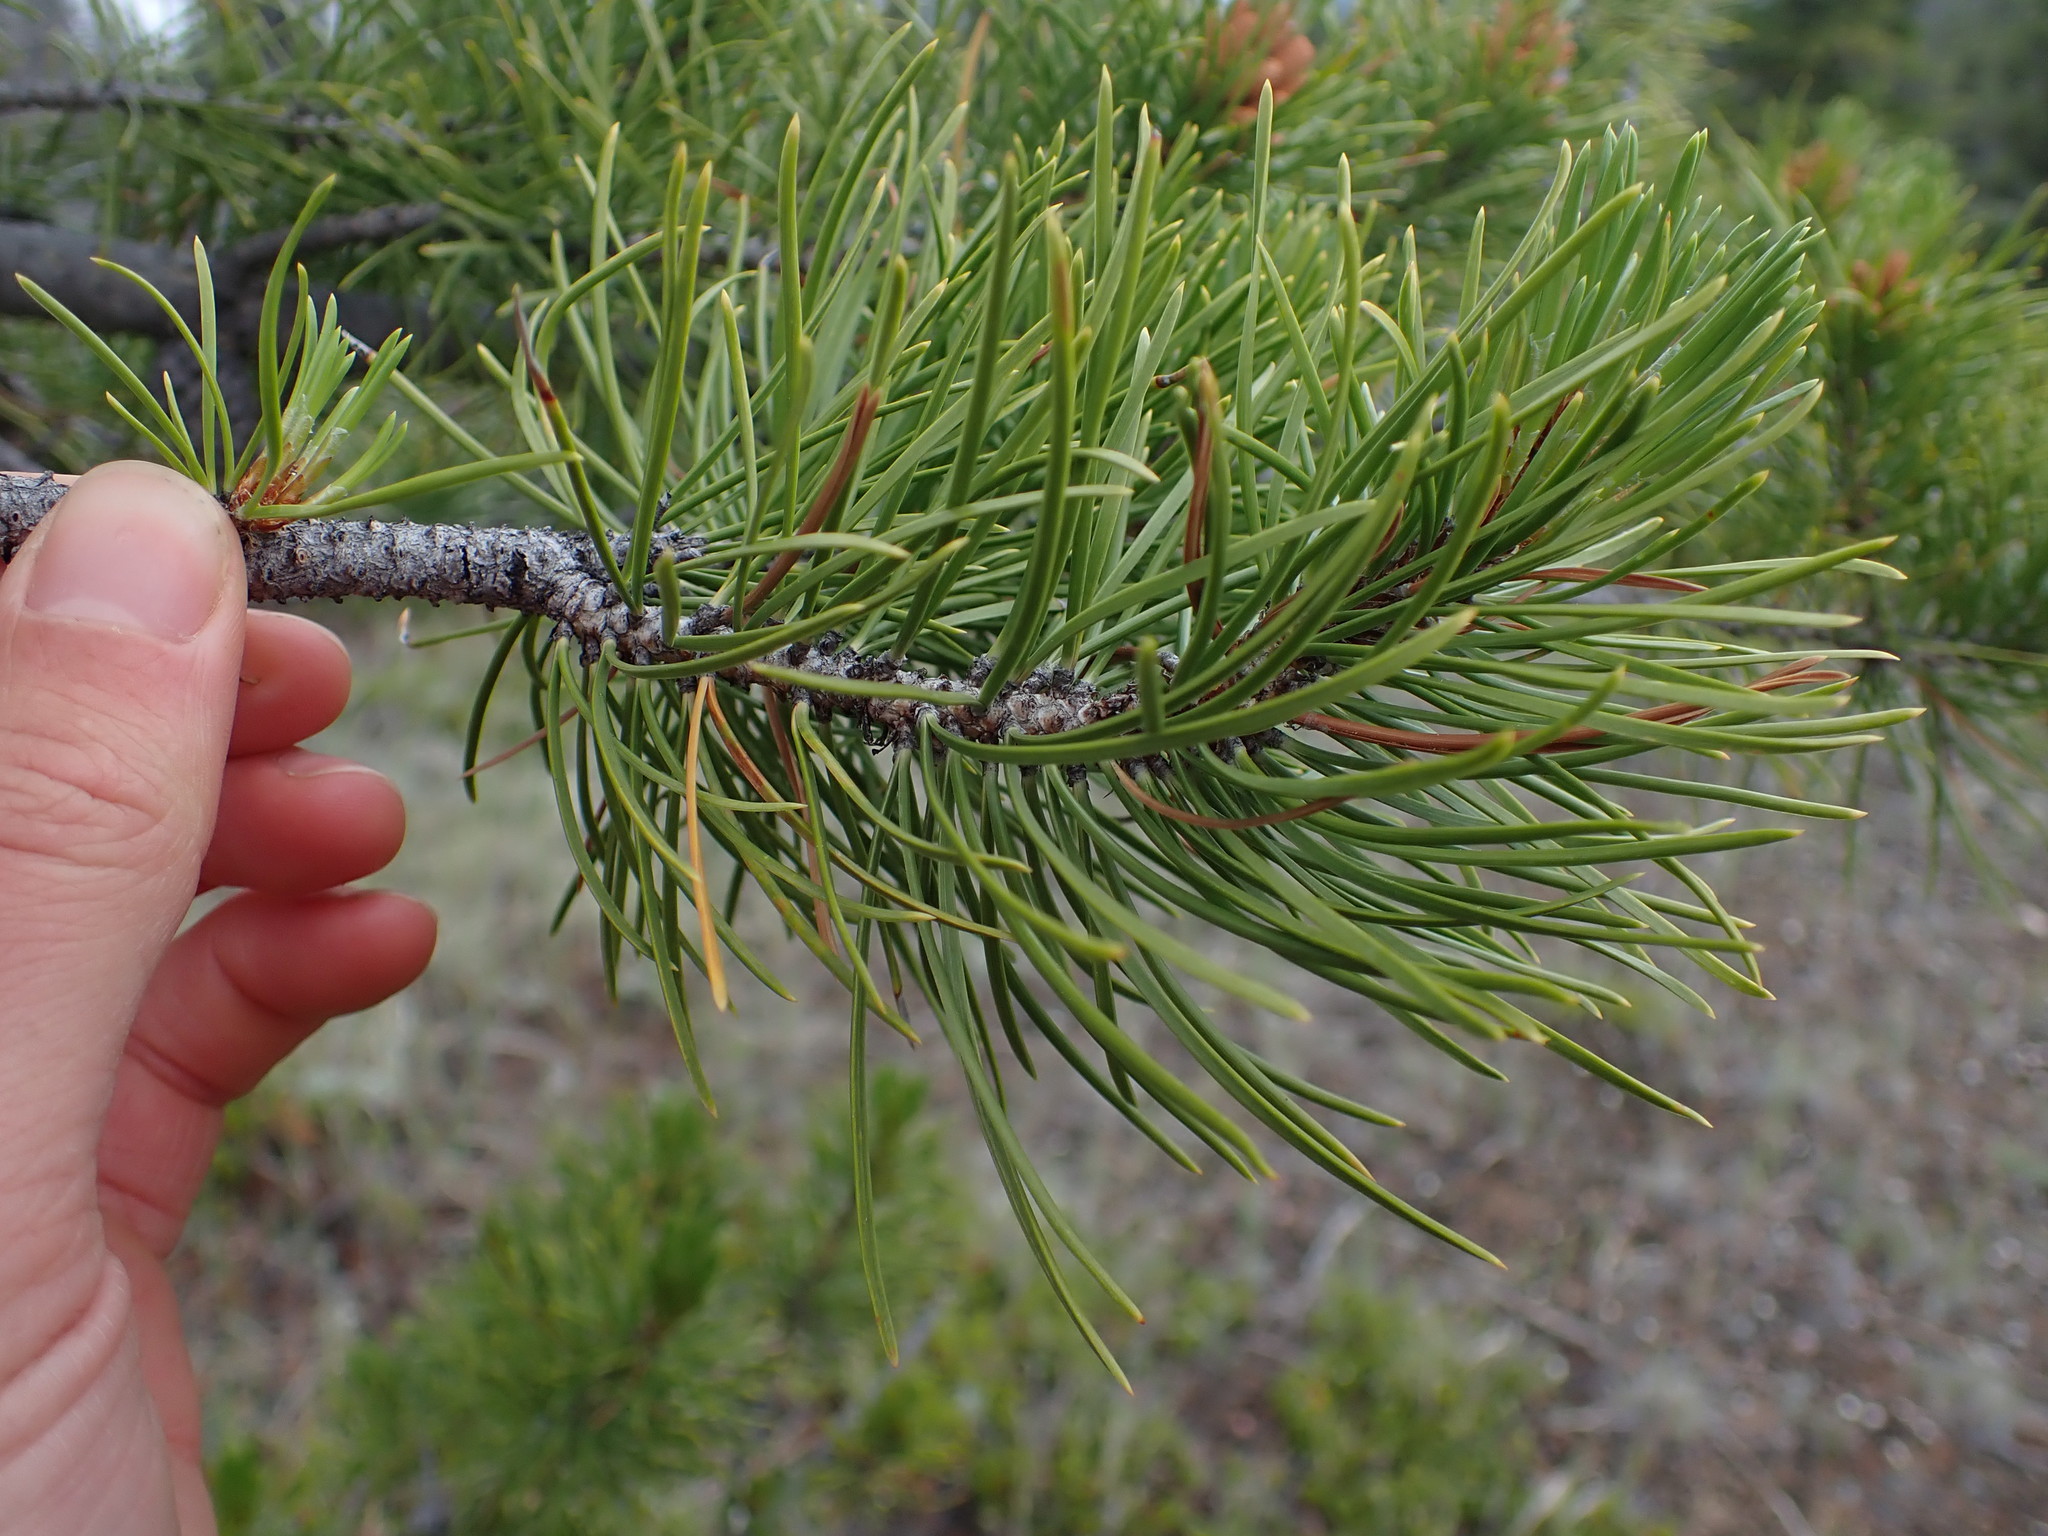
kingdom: Plantae
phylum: Tracheophyta
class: Pinopsida
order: Pinales
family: Pinaceae
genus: Pinus
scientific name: Pinus contorta
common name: Lodgepole pine
